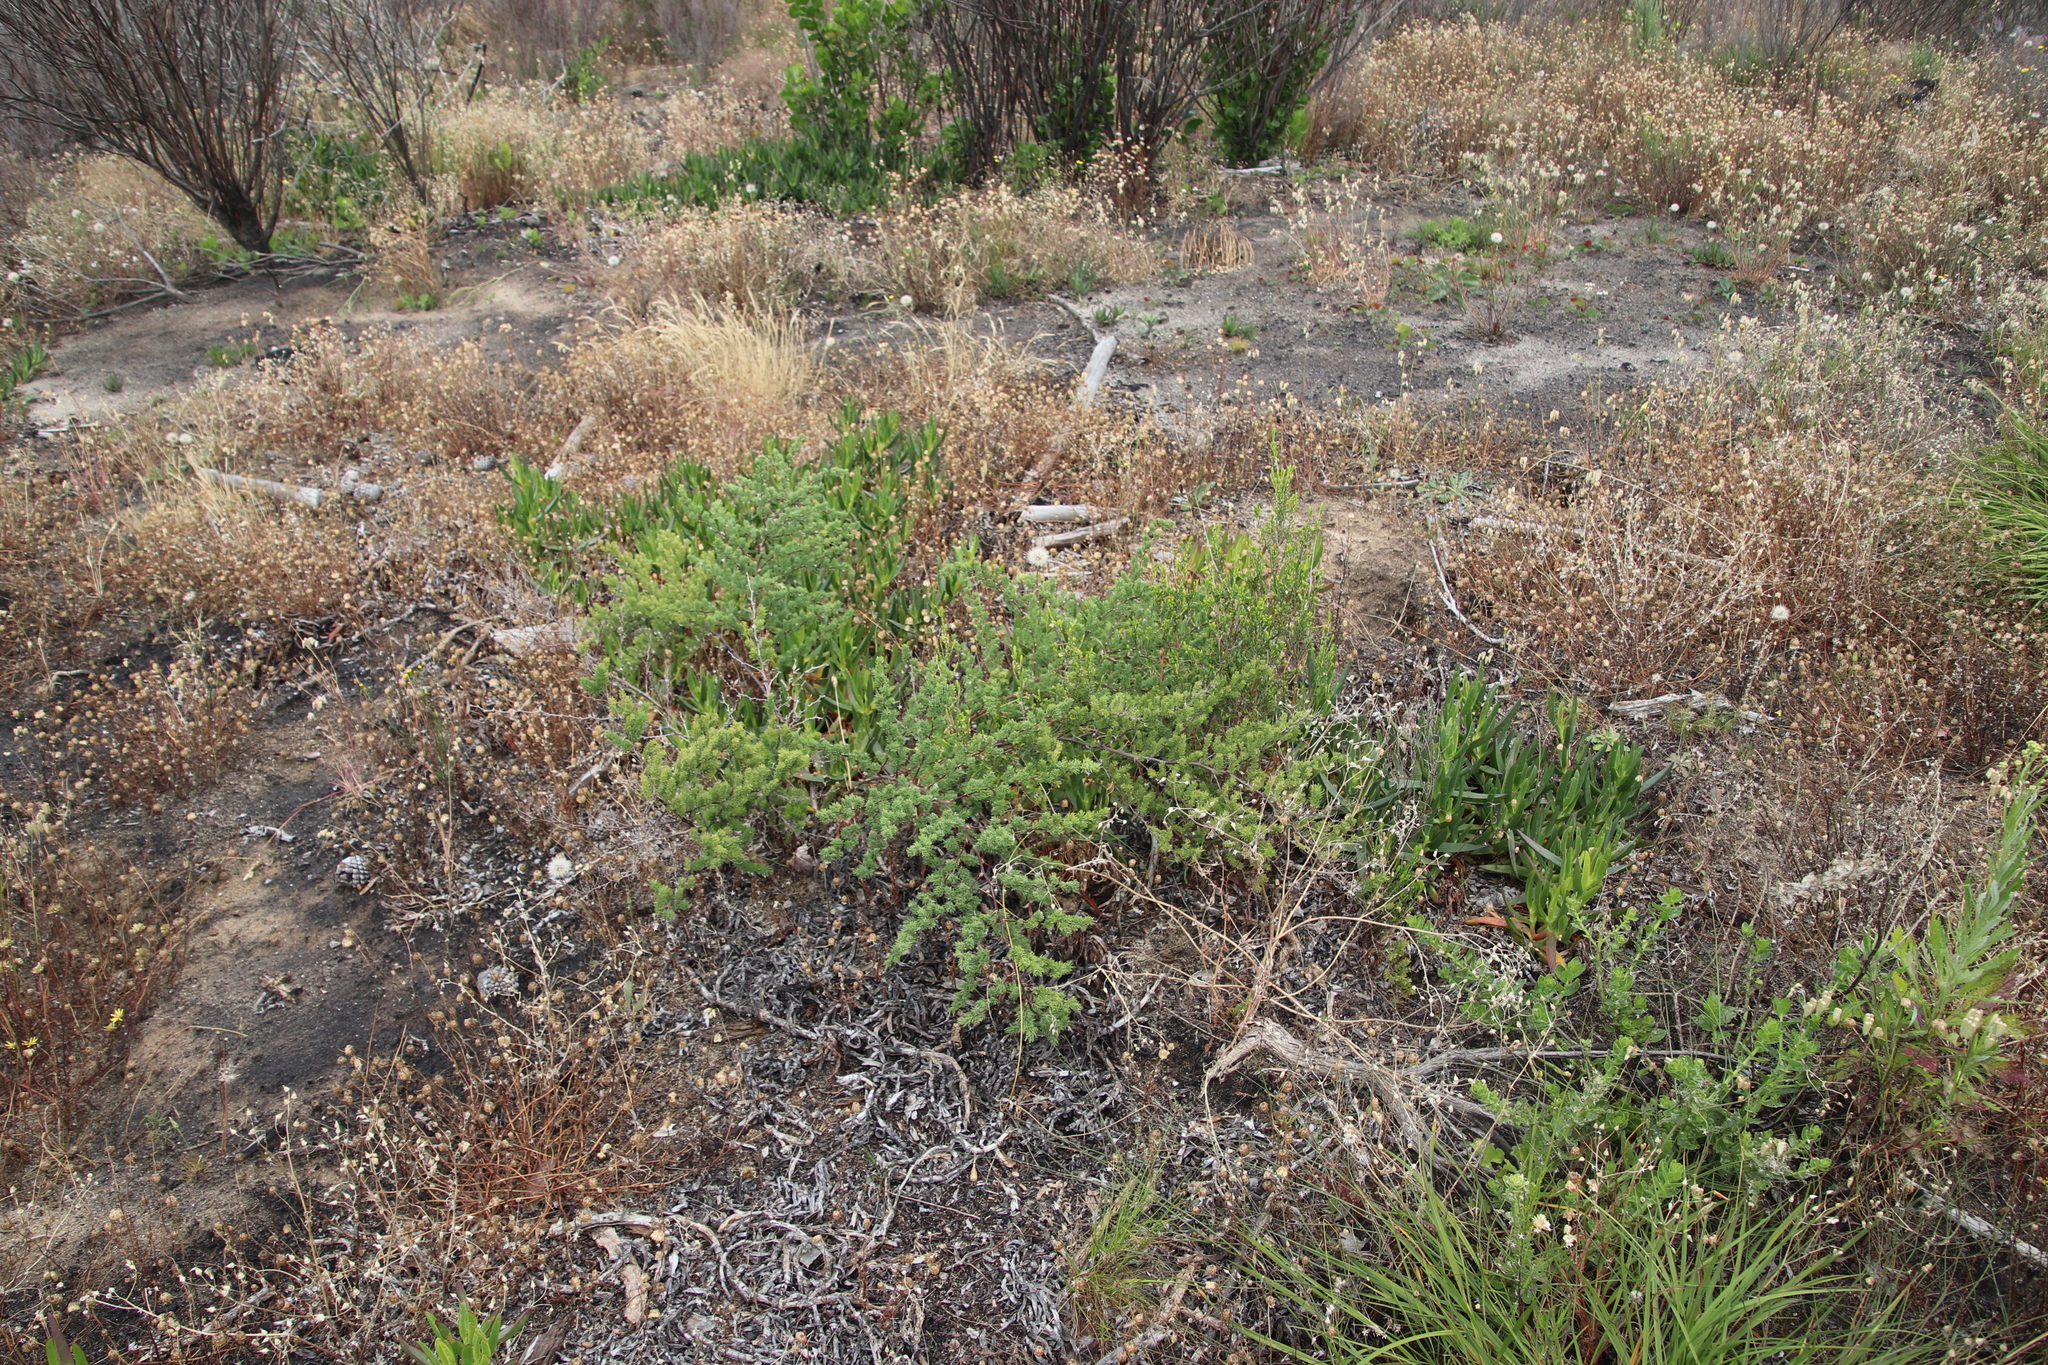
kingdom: Plantae
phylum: Tracheophyta
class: Liliopsida
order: Asparagales
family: Asparagaceae
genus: Asparagus
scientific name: Asparagus rubicundus
